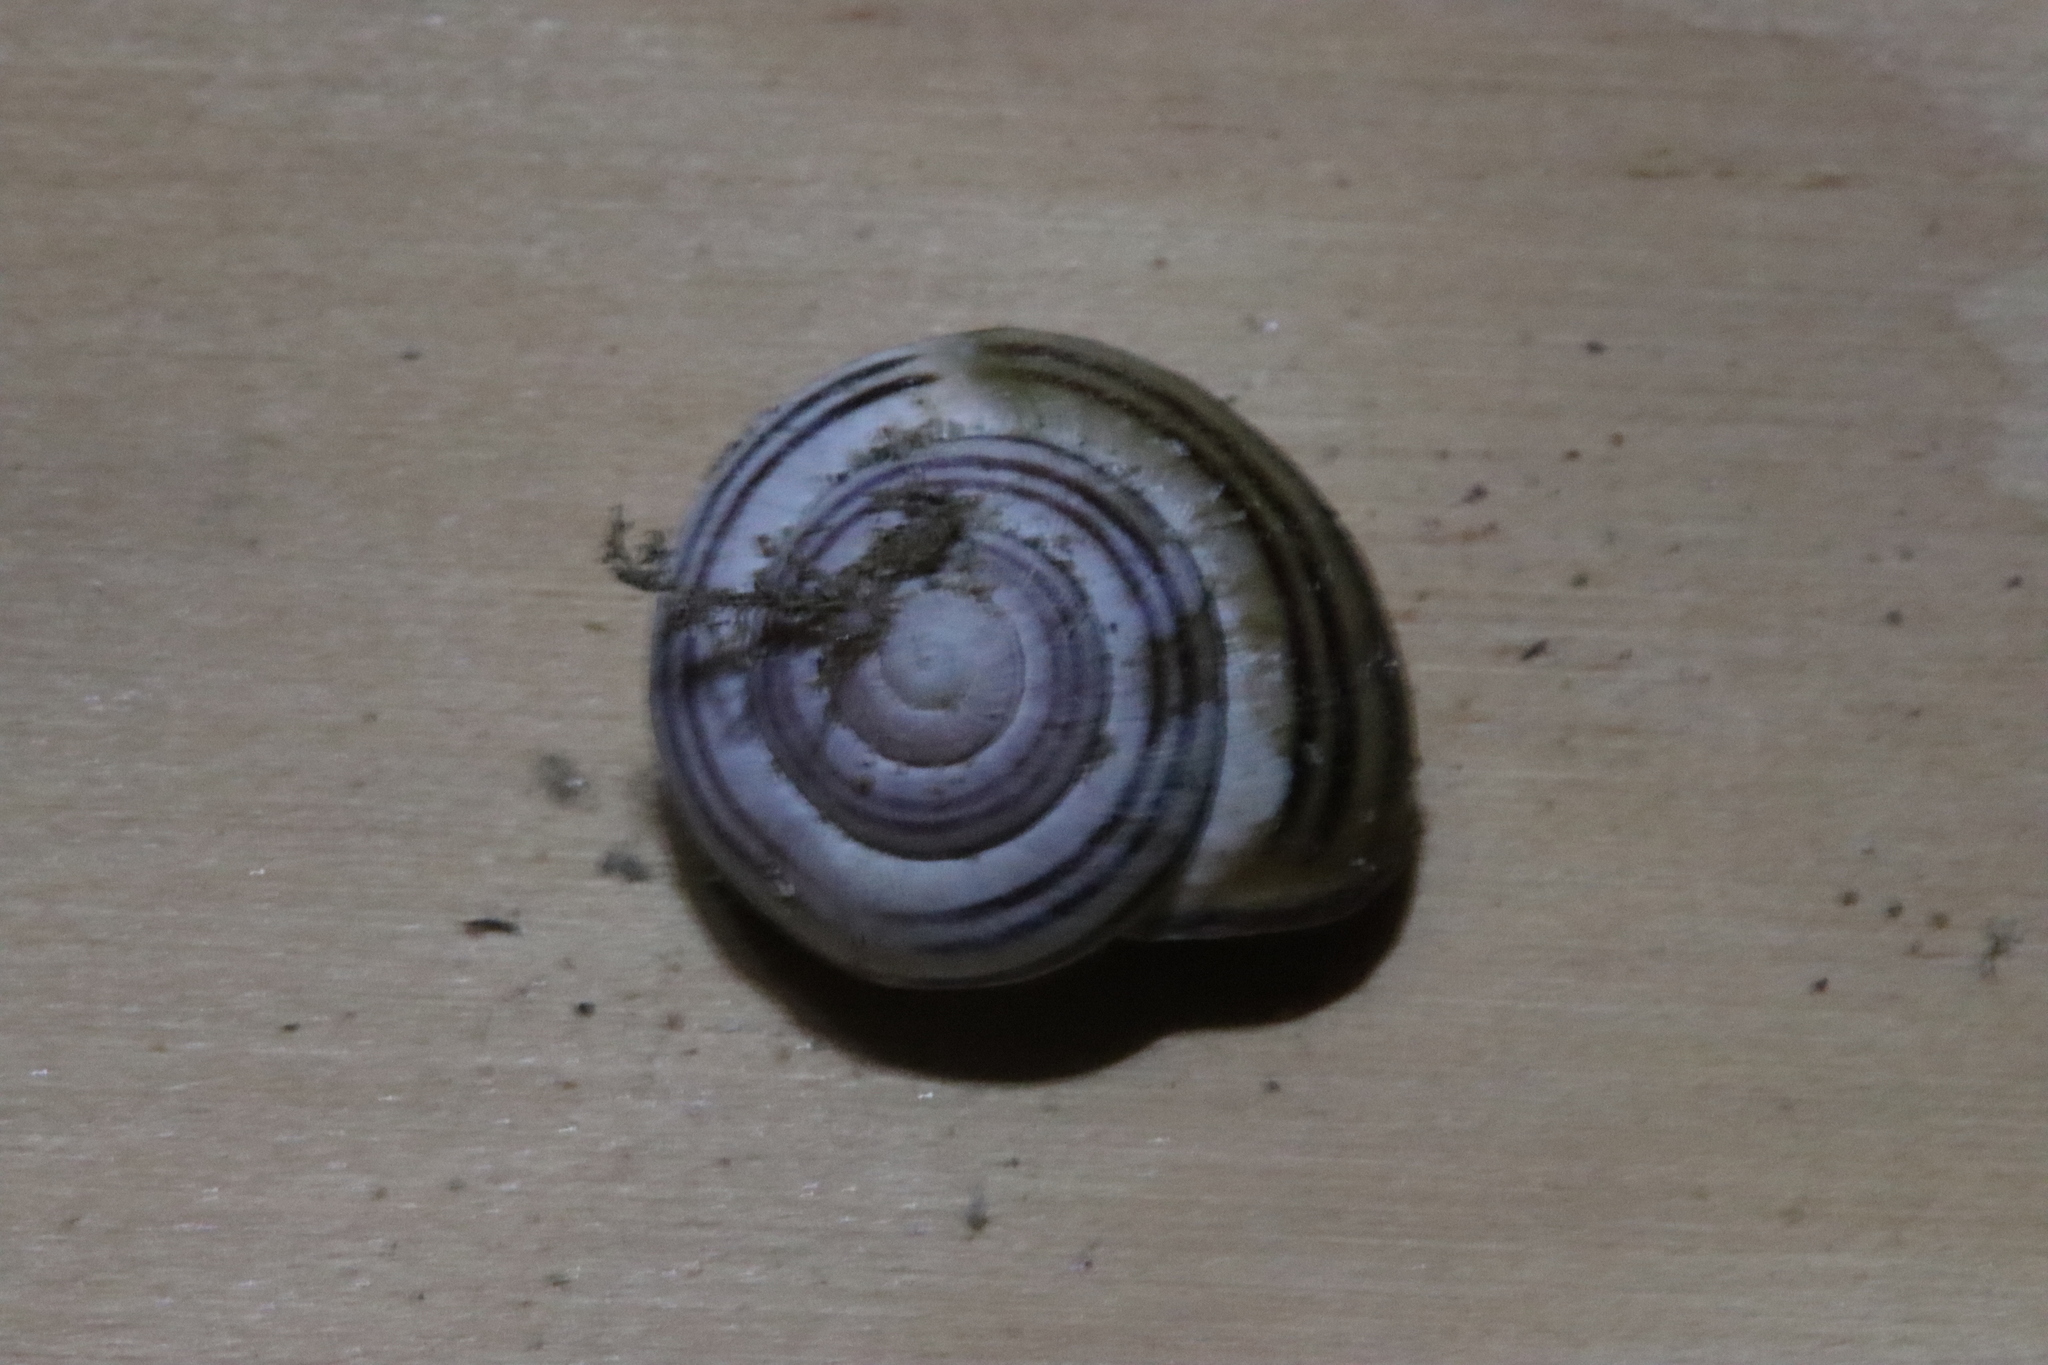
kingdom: Animalia
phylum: Mollusca
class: Gastropoda
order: Stylommatophora
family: Helicidae
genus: Cepaea
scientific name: Cepaea nemoralis
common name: Grovesnail
